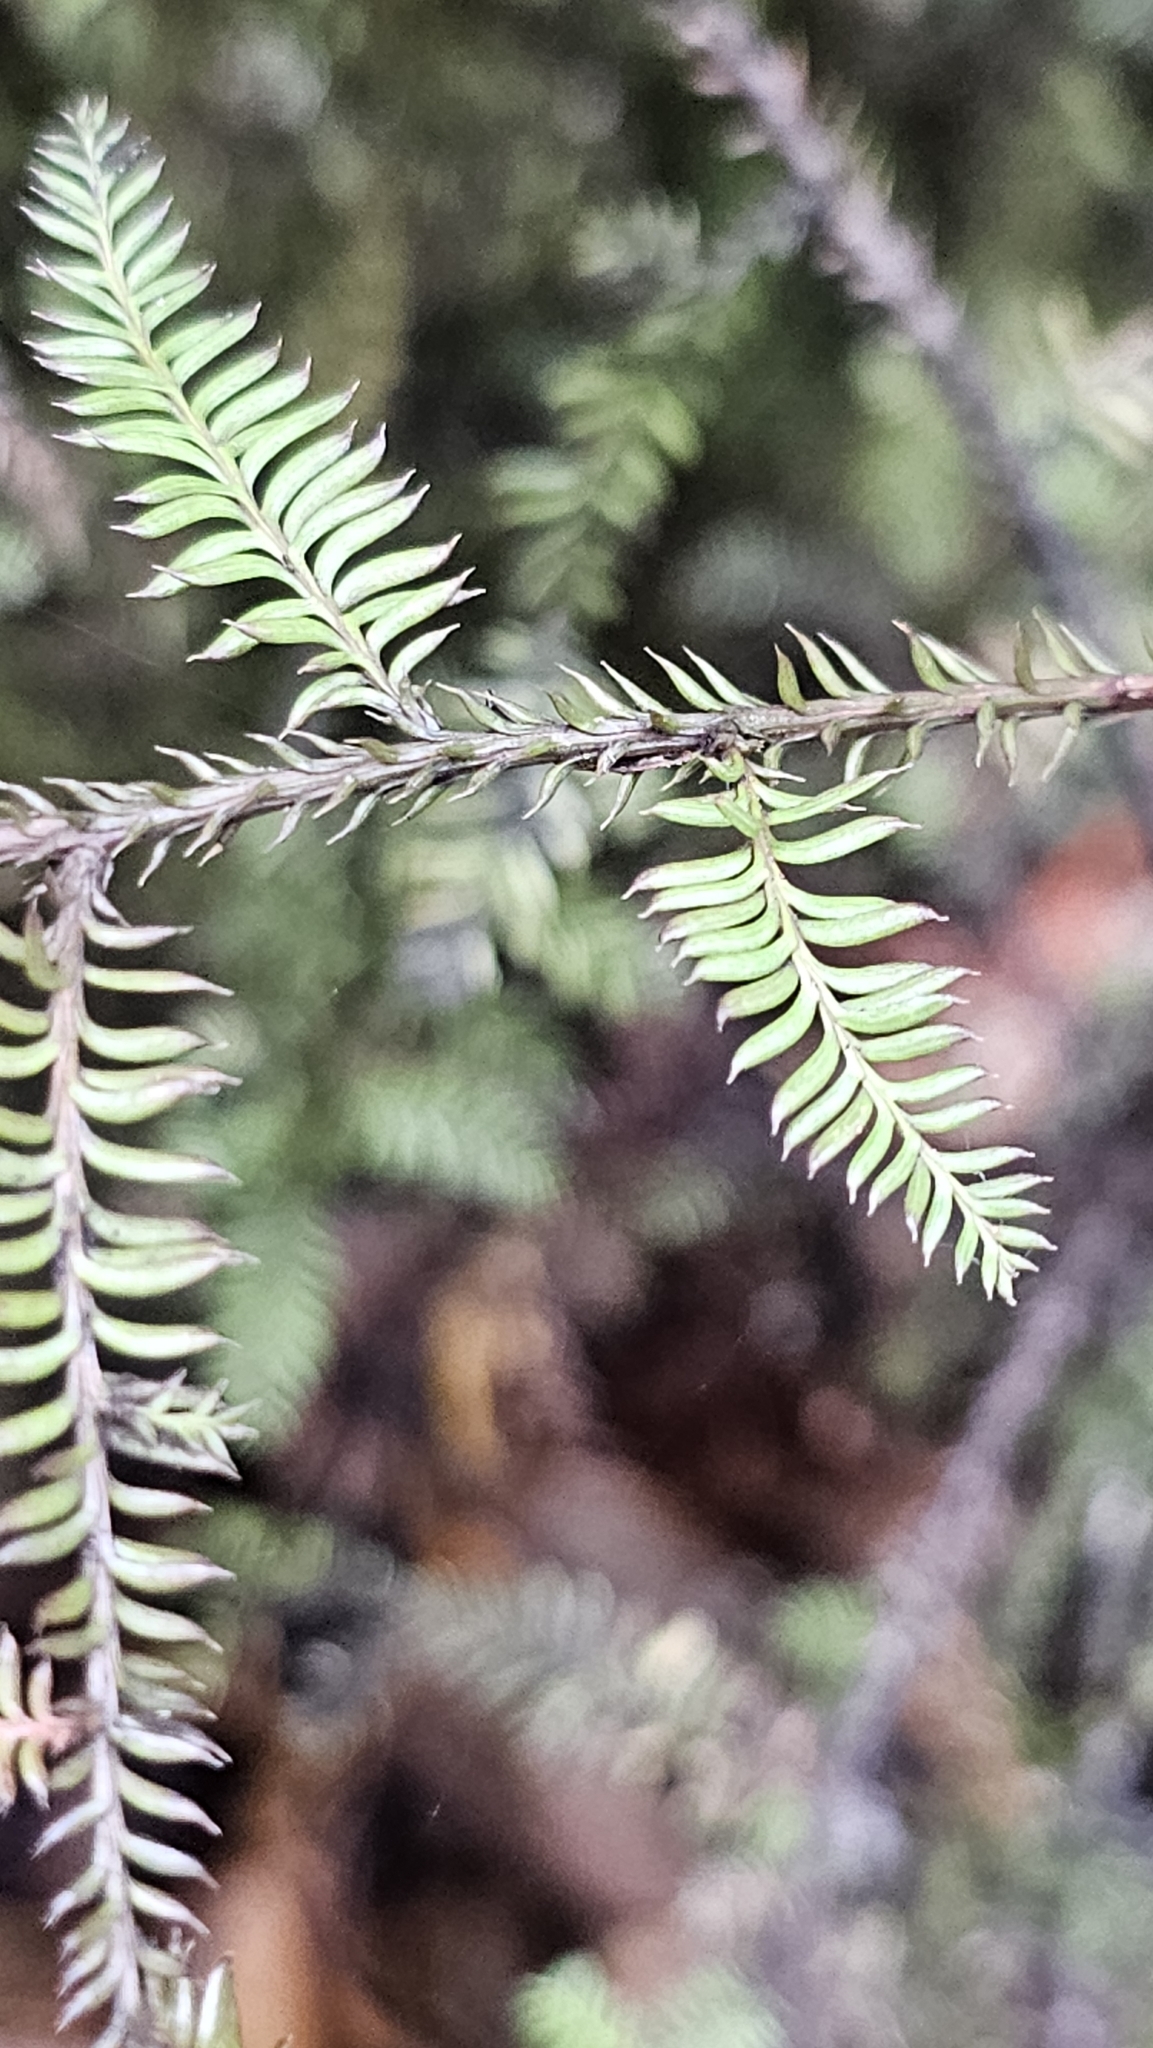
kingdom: Plantae
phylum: Tracheophyta
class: Pinopsida
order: Pinales
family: Podocarpaceae
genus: Dacrycarpus
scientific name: Dacrycarpus dacrydioides
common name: White pine
